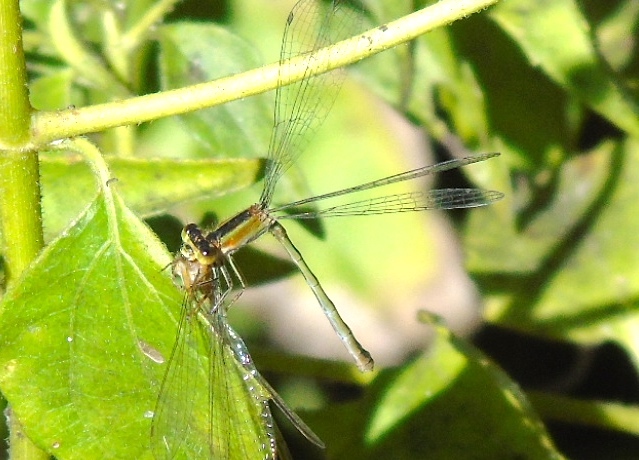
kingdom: Animalia
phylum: Arthropoda
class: Insecta
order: Odonata
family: Coenagrionidae
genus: Ischnura
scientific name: Ischnura ramburii
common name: Rambur's forktail
